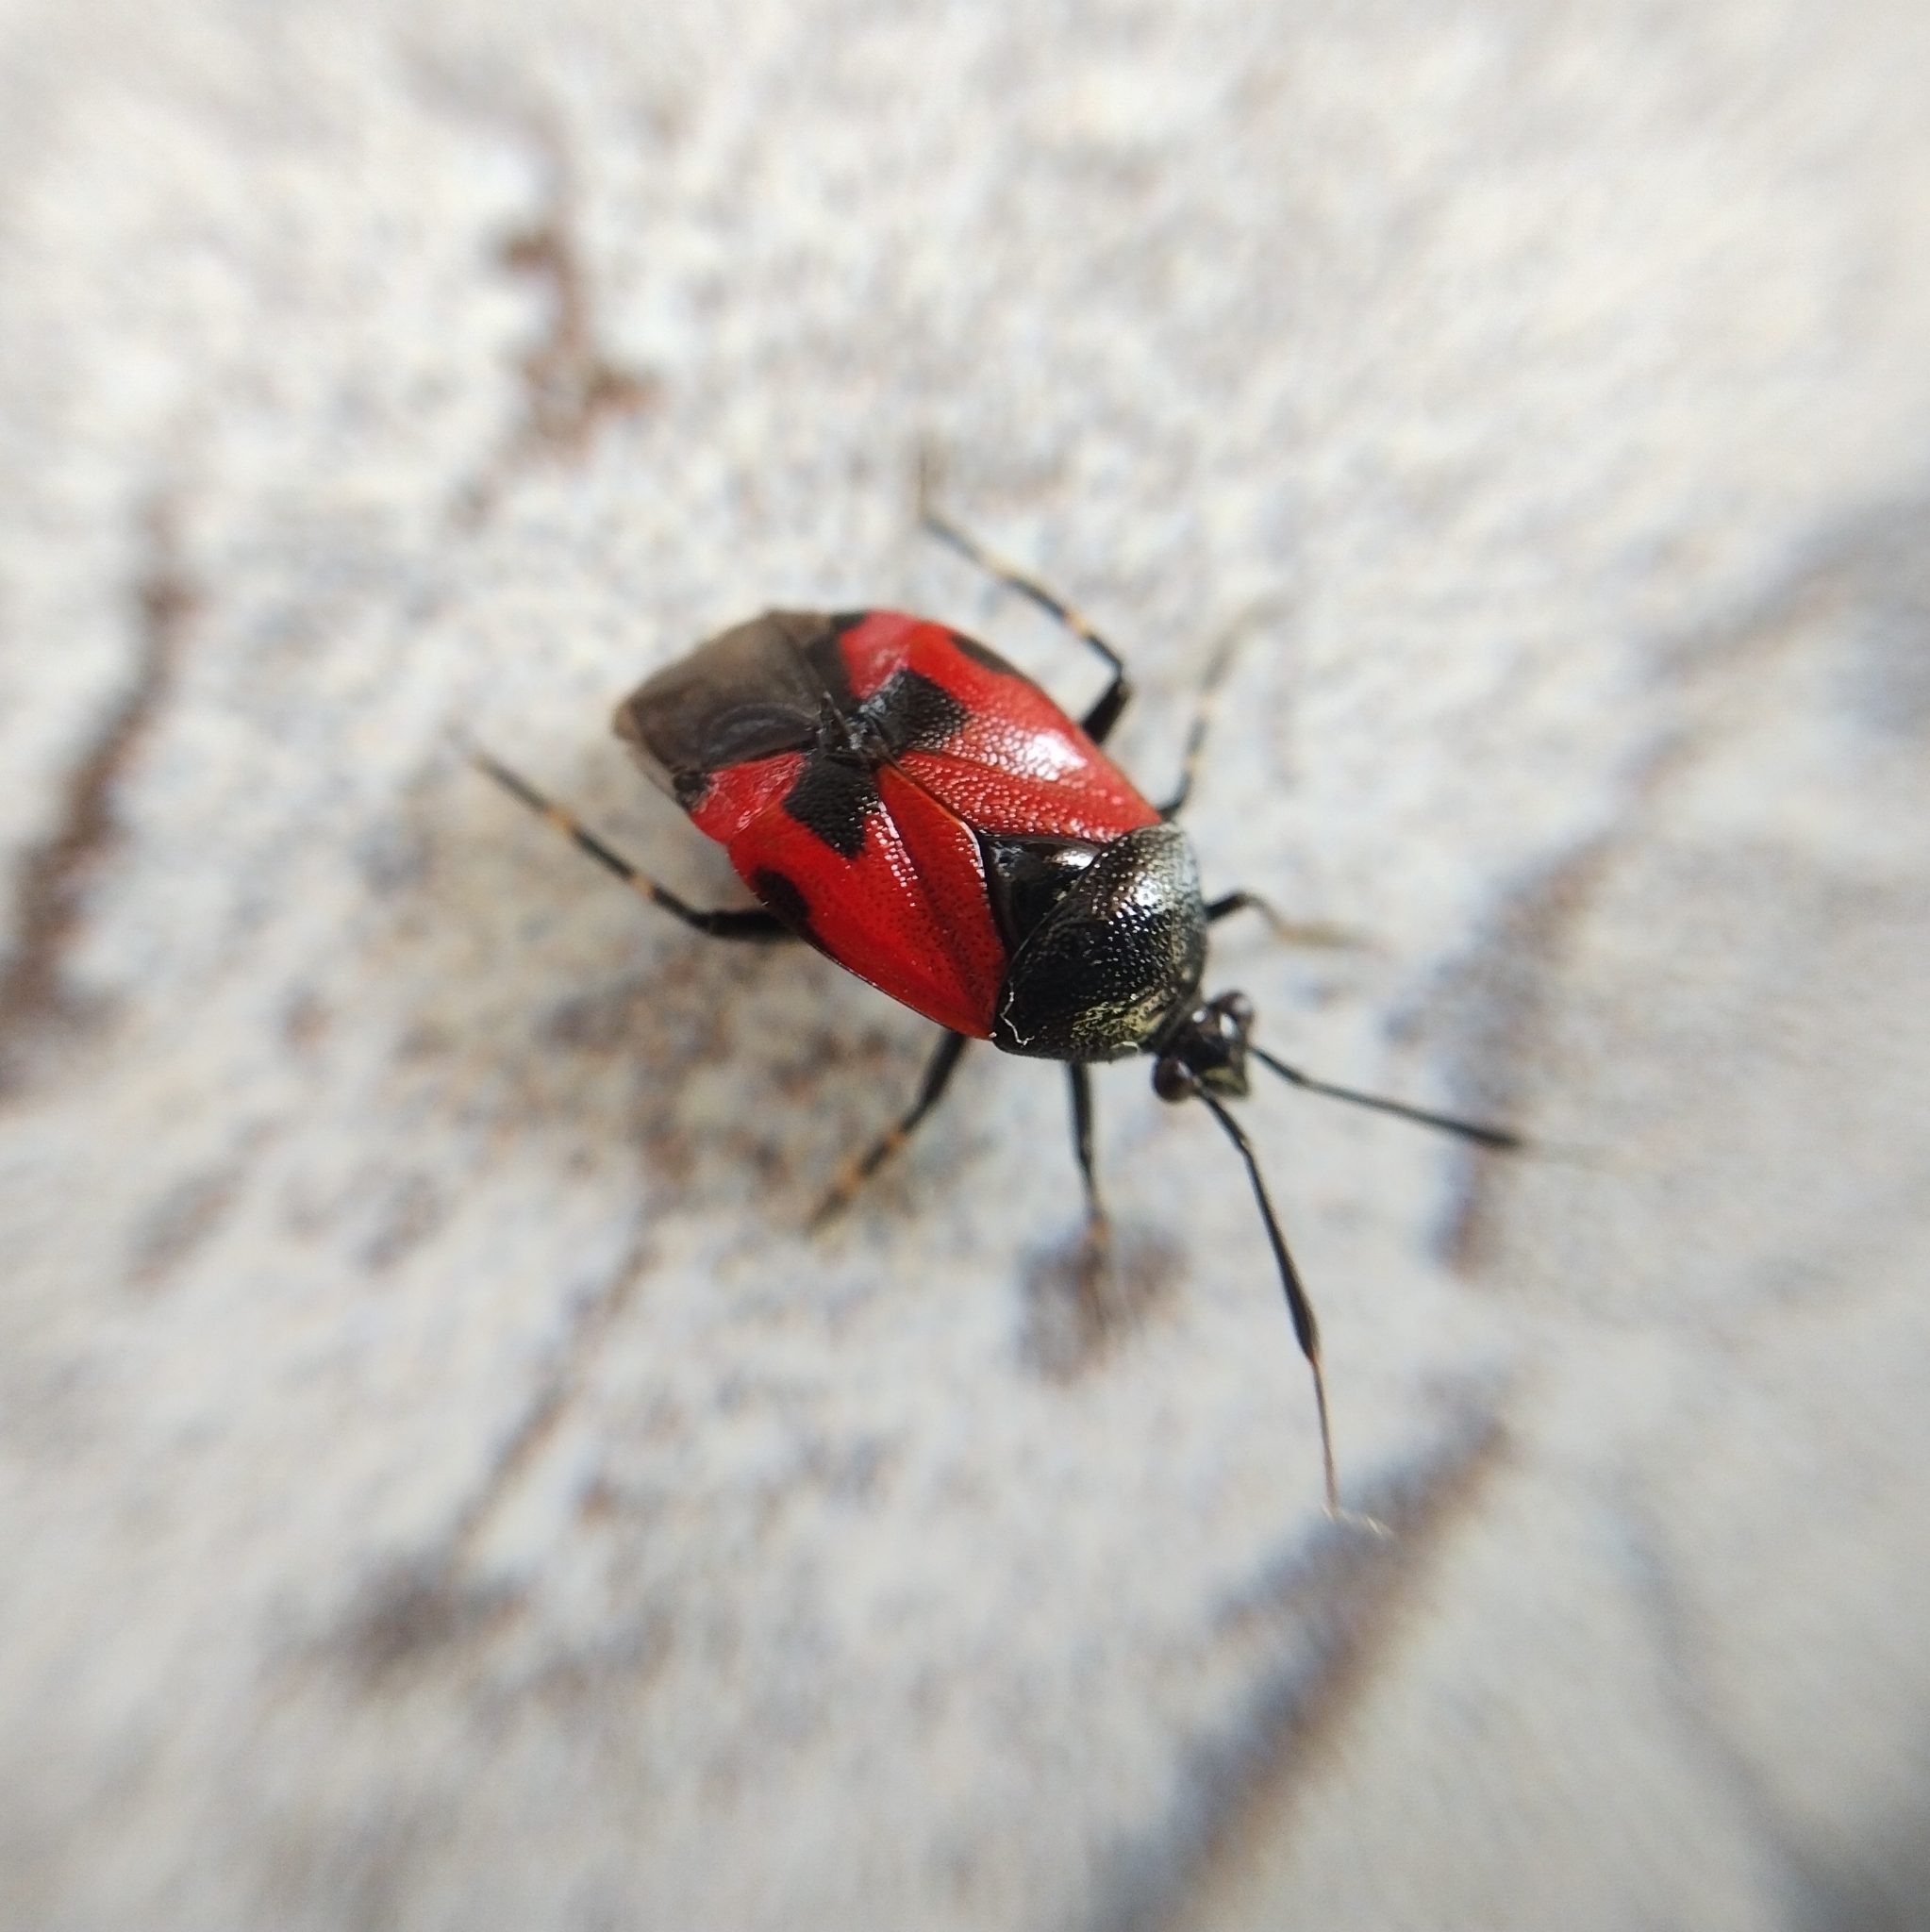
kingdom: Animalia
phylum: Arthropoda
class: Insecta
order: Hemiptera
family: Miridae
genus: Deraeocoris
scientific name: Deraeocoris rutilus
